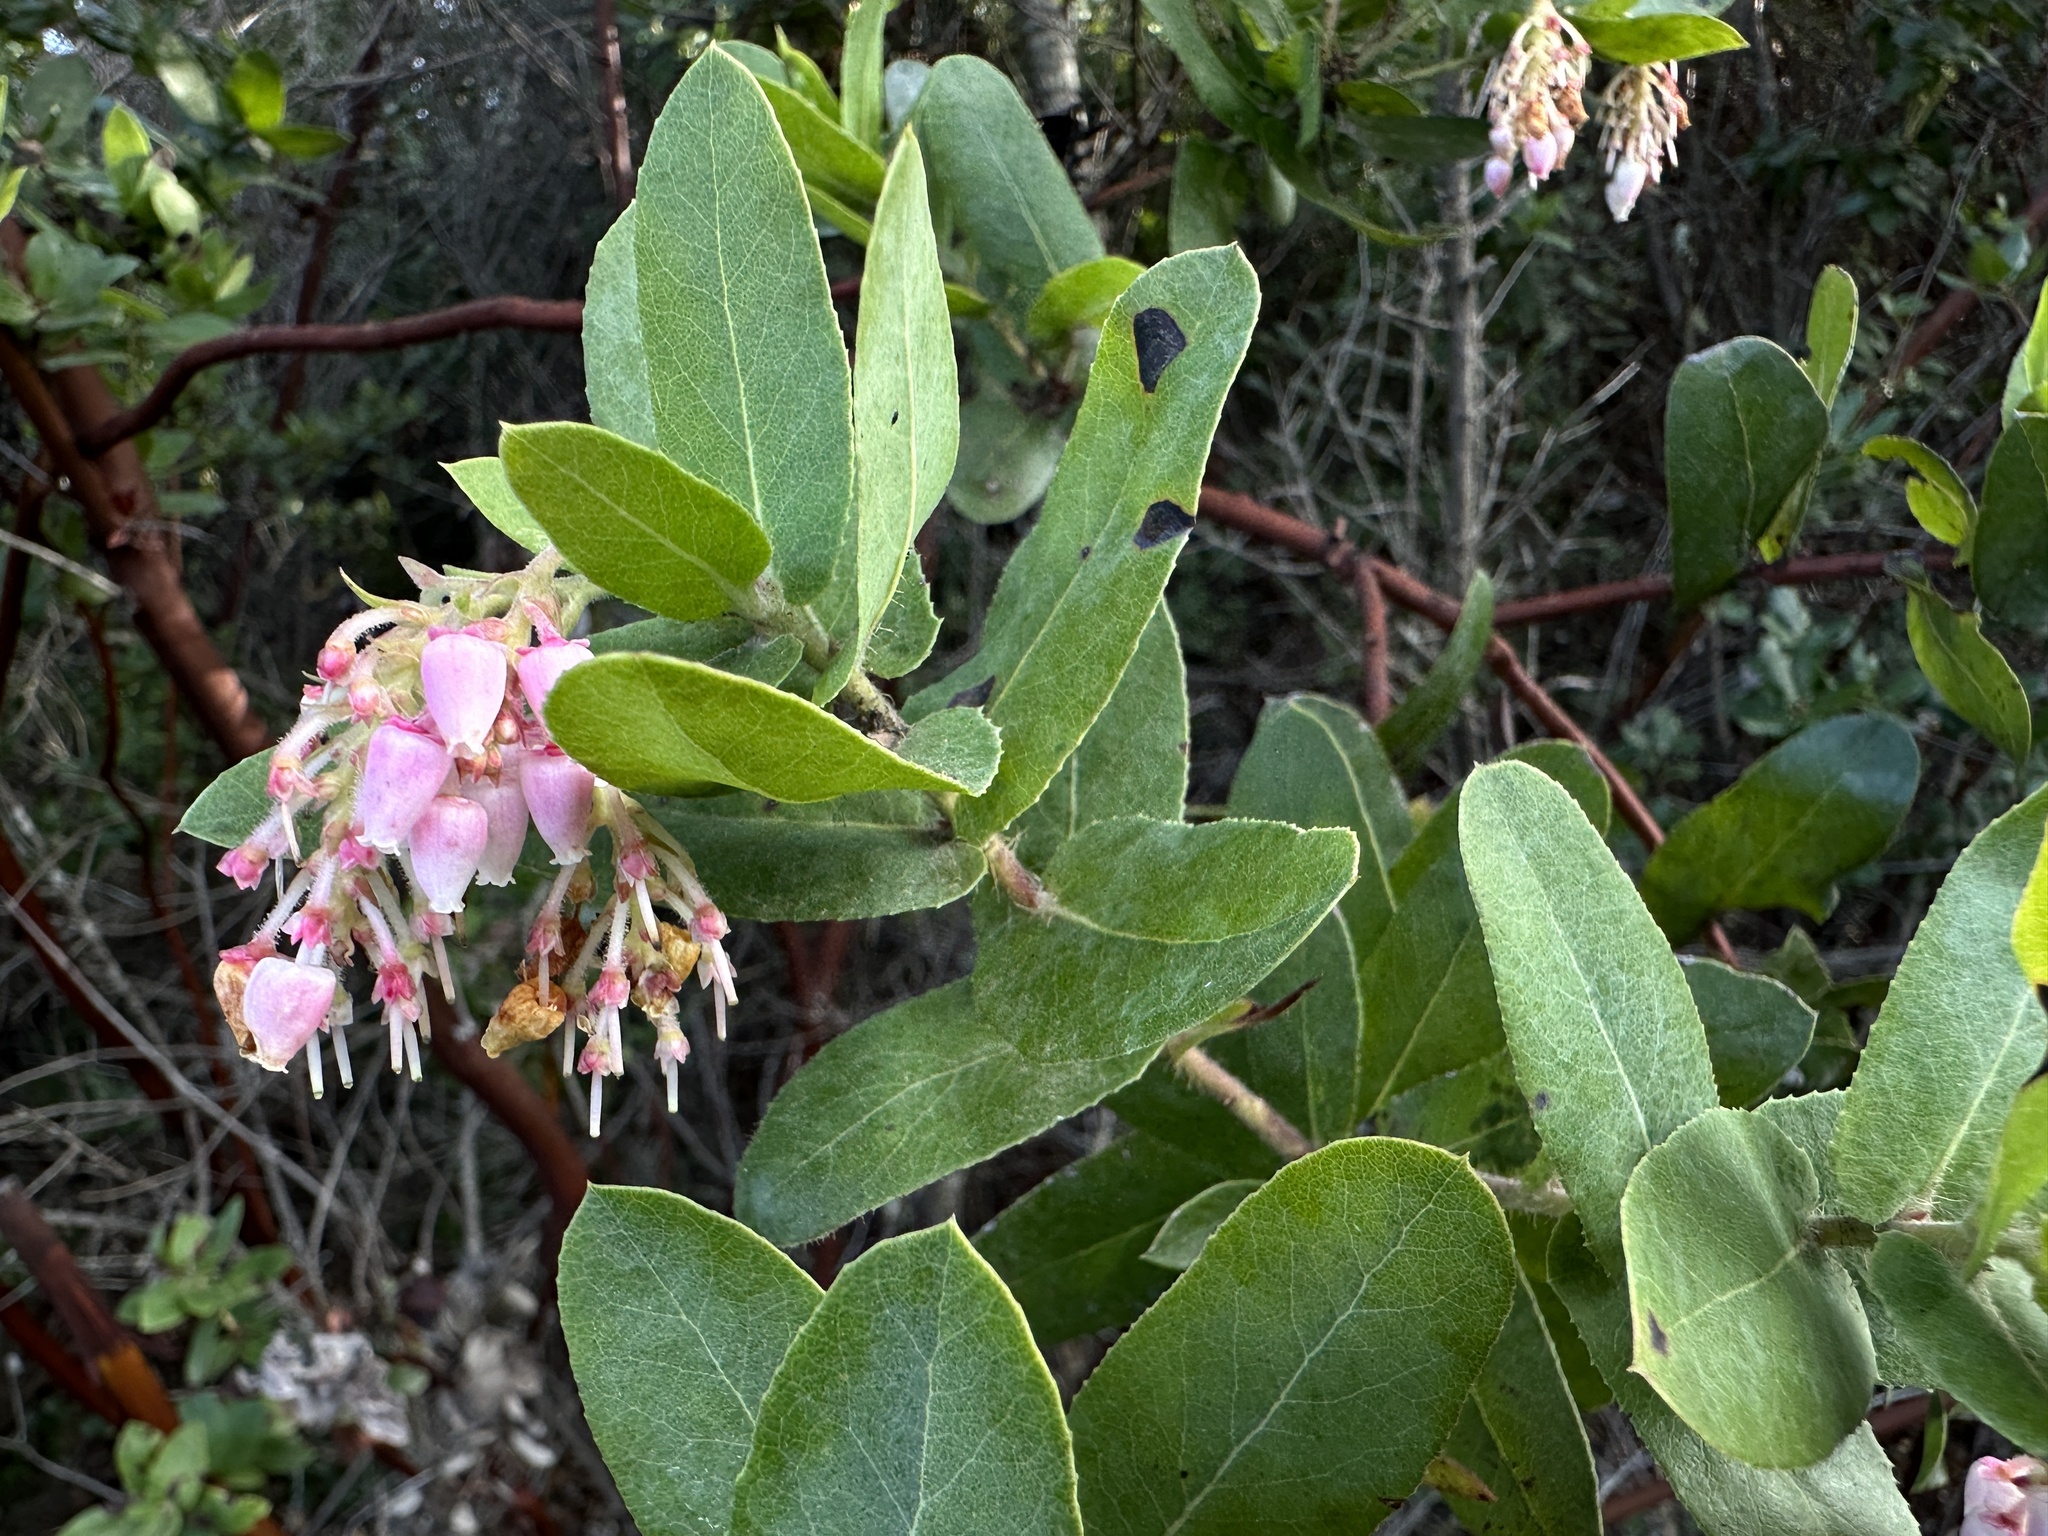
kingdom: Plantae
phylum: Tracheophyta
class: Magnoliopsida
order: Ericales
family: Ericaceae
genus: Arctostaphylos
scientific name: Arctostaphylos andersonii
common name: Santa cruz manzanita
